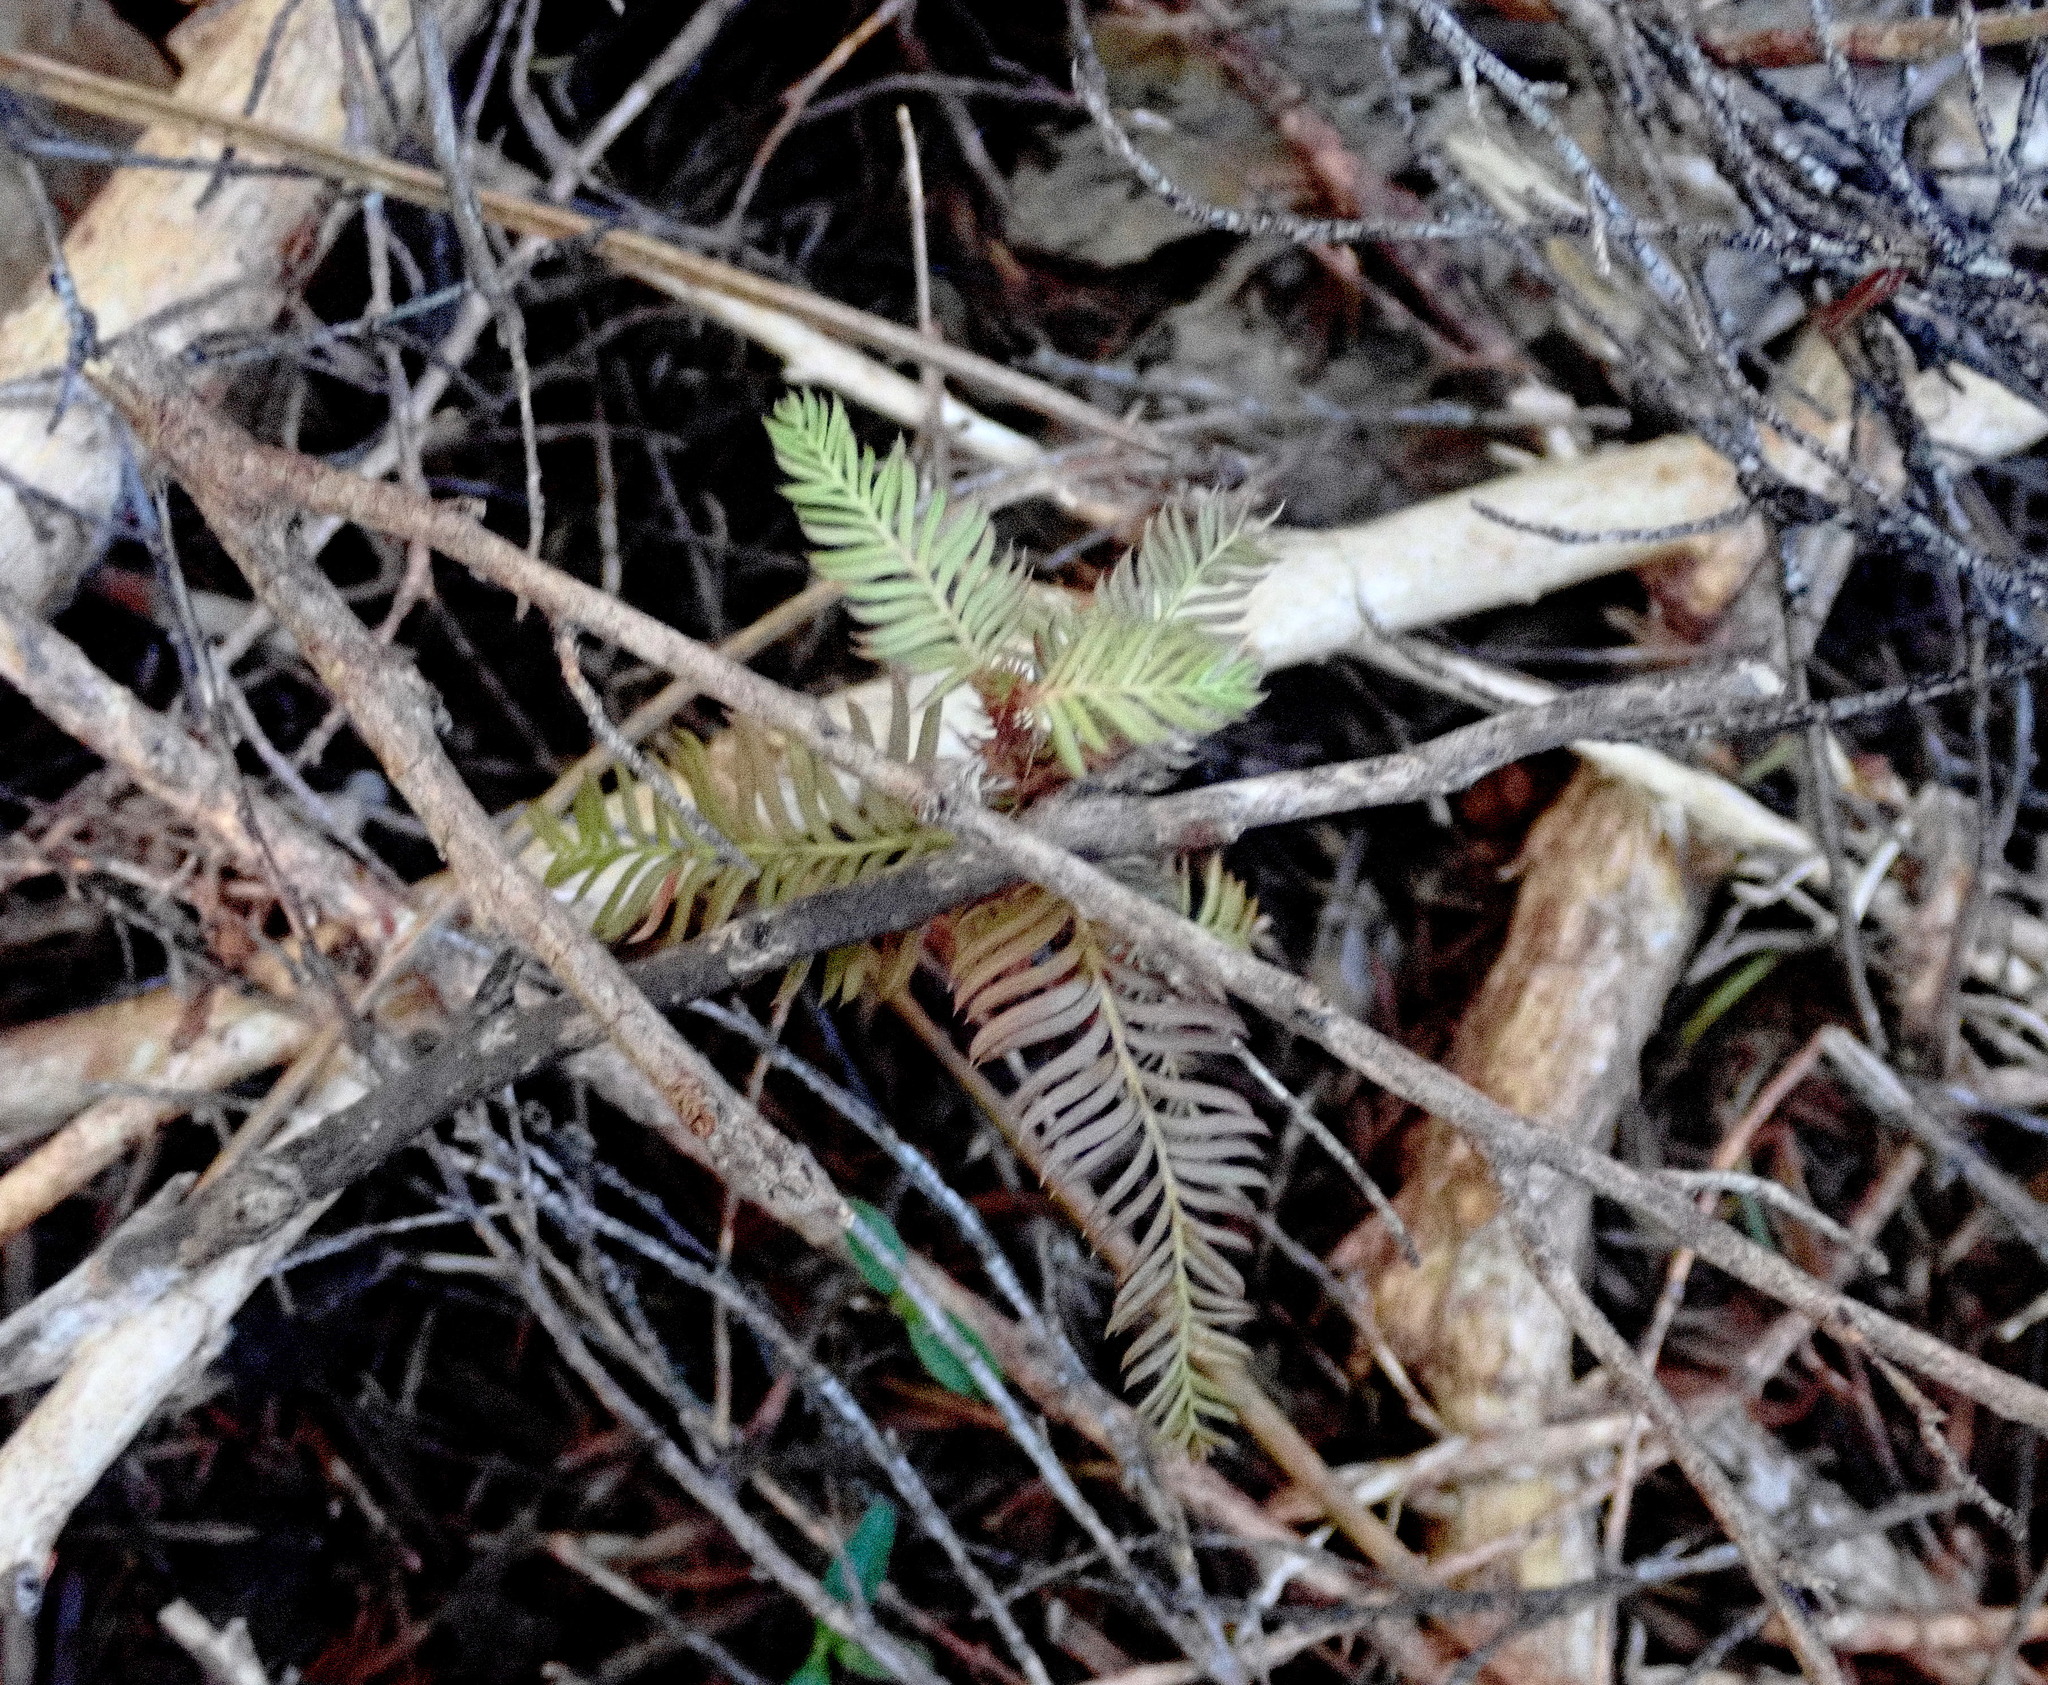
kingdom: Plantae
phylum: Tracheophyta
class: Pinopsida
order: Pinales
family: Podocarpaceae
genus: Dacrycarpus
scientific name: Dacrycarpus dacrydioides
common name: White pine
